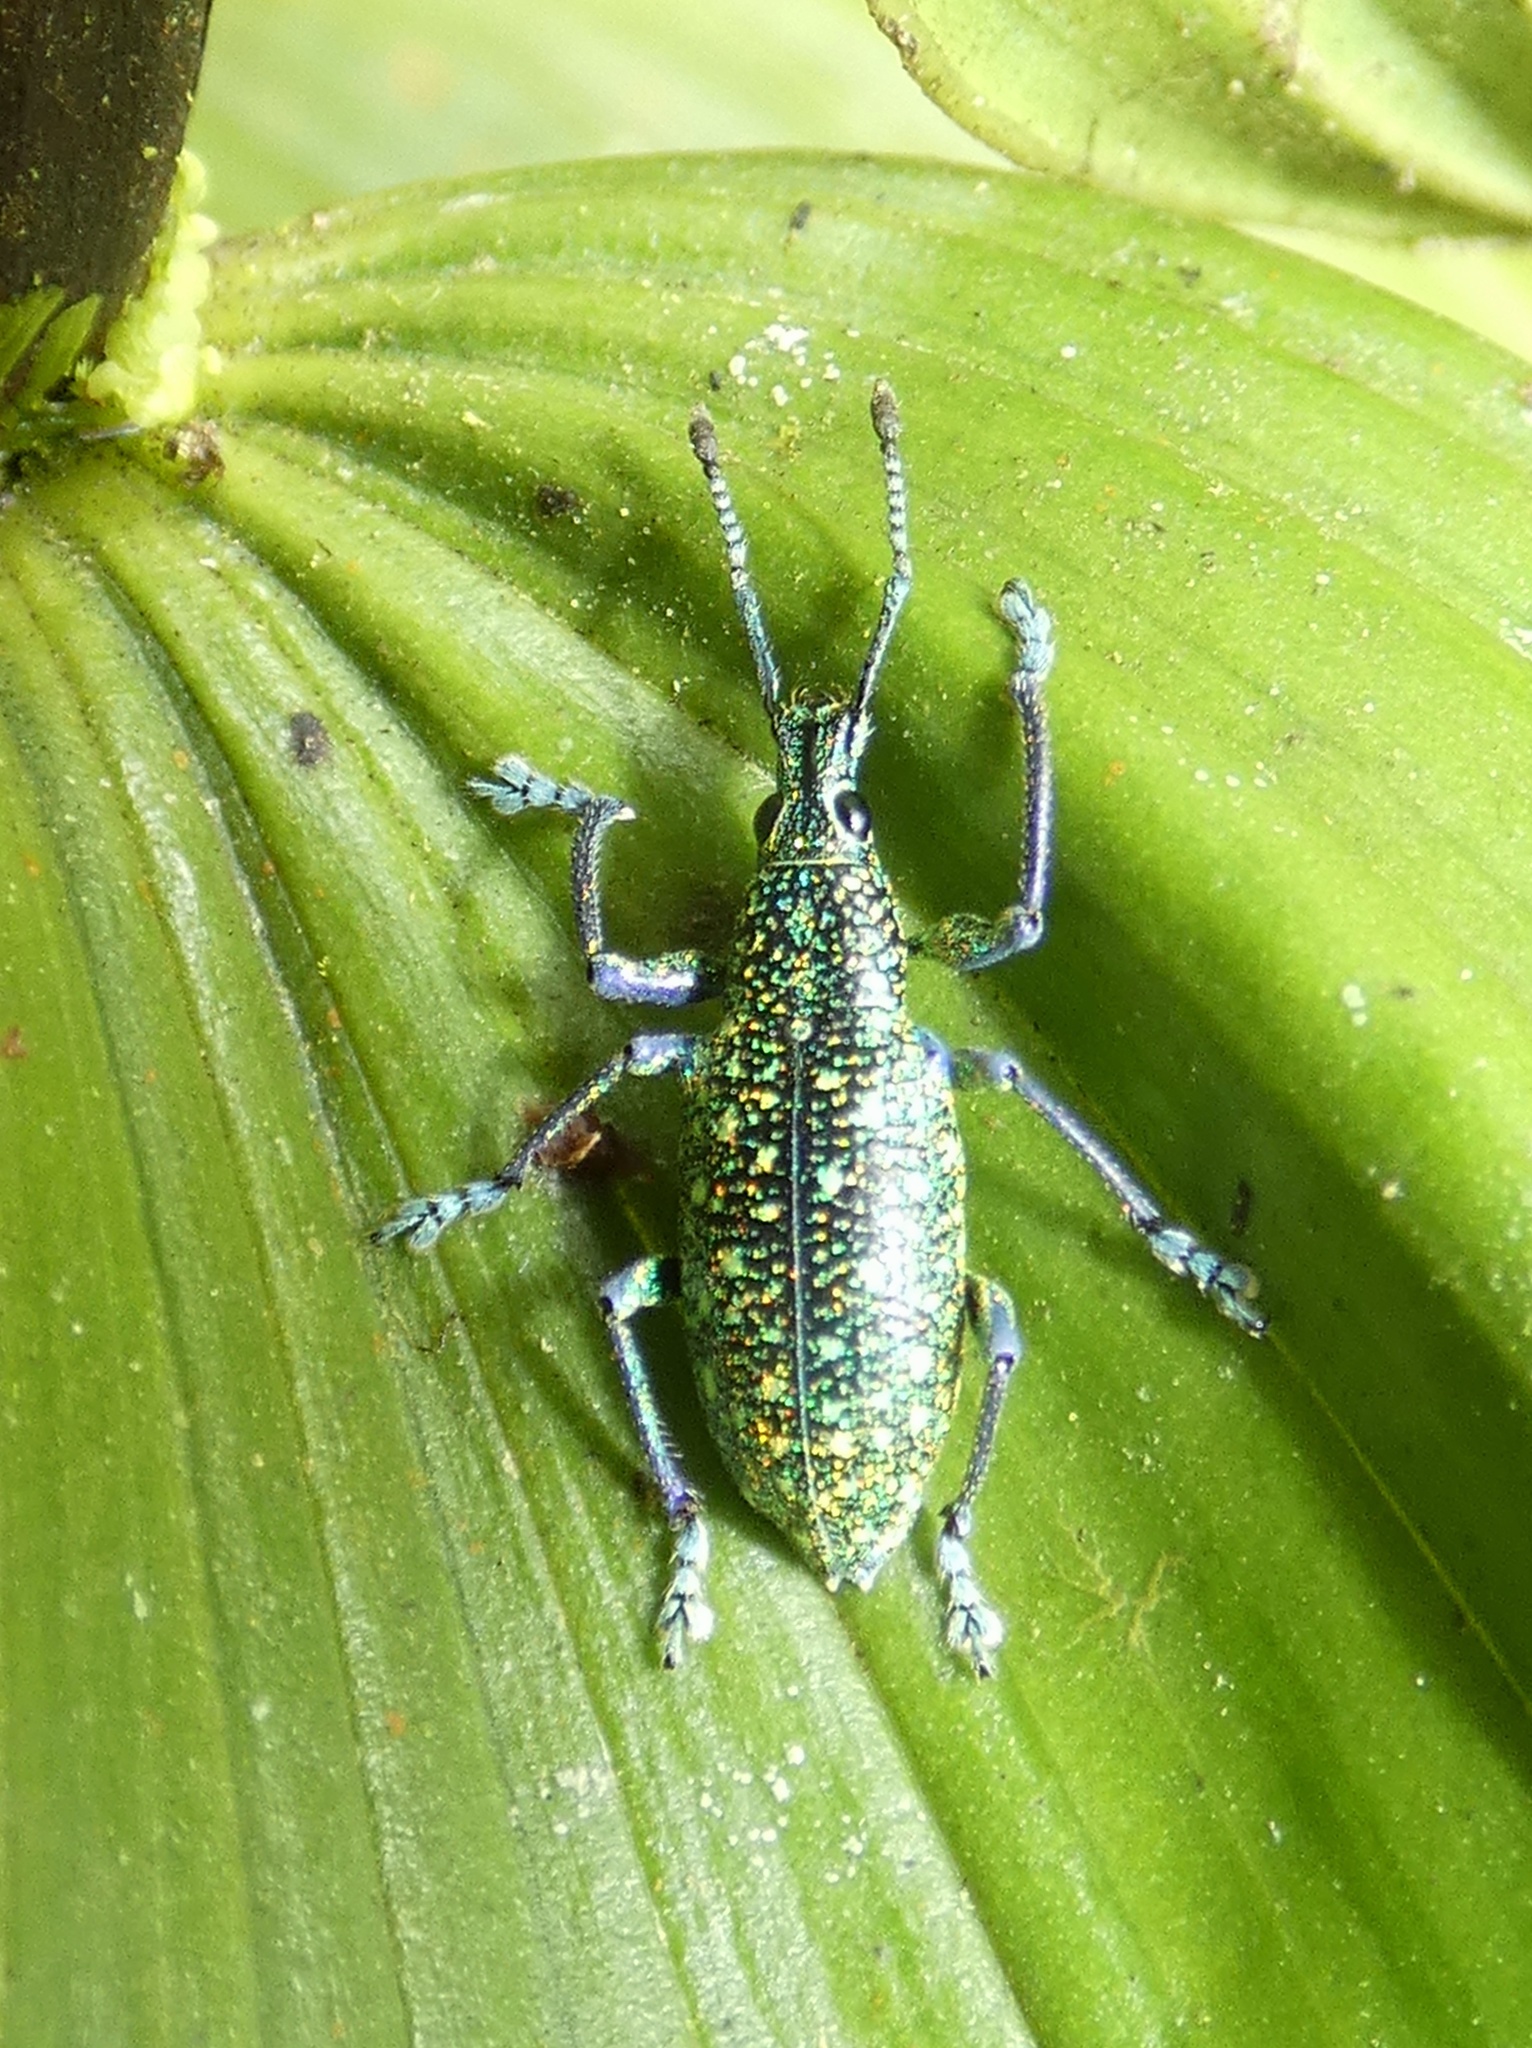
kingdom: Animalia
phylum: Arthropoda
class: Insecta
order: Coleoptera
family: Curculionidae
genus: Exophthalmus
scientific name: Exophthalmus jekelianus
